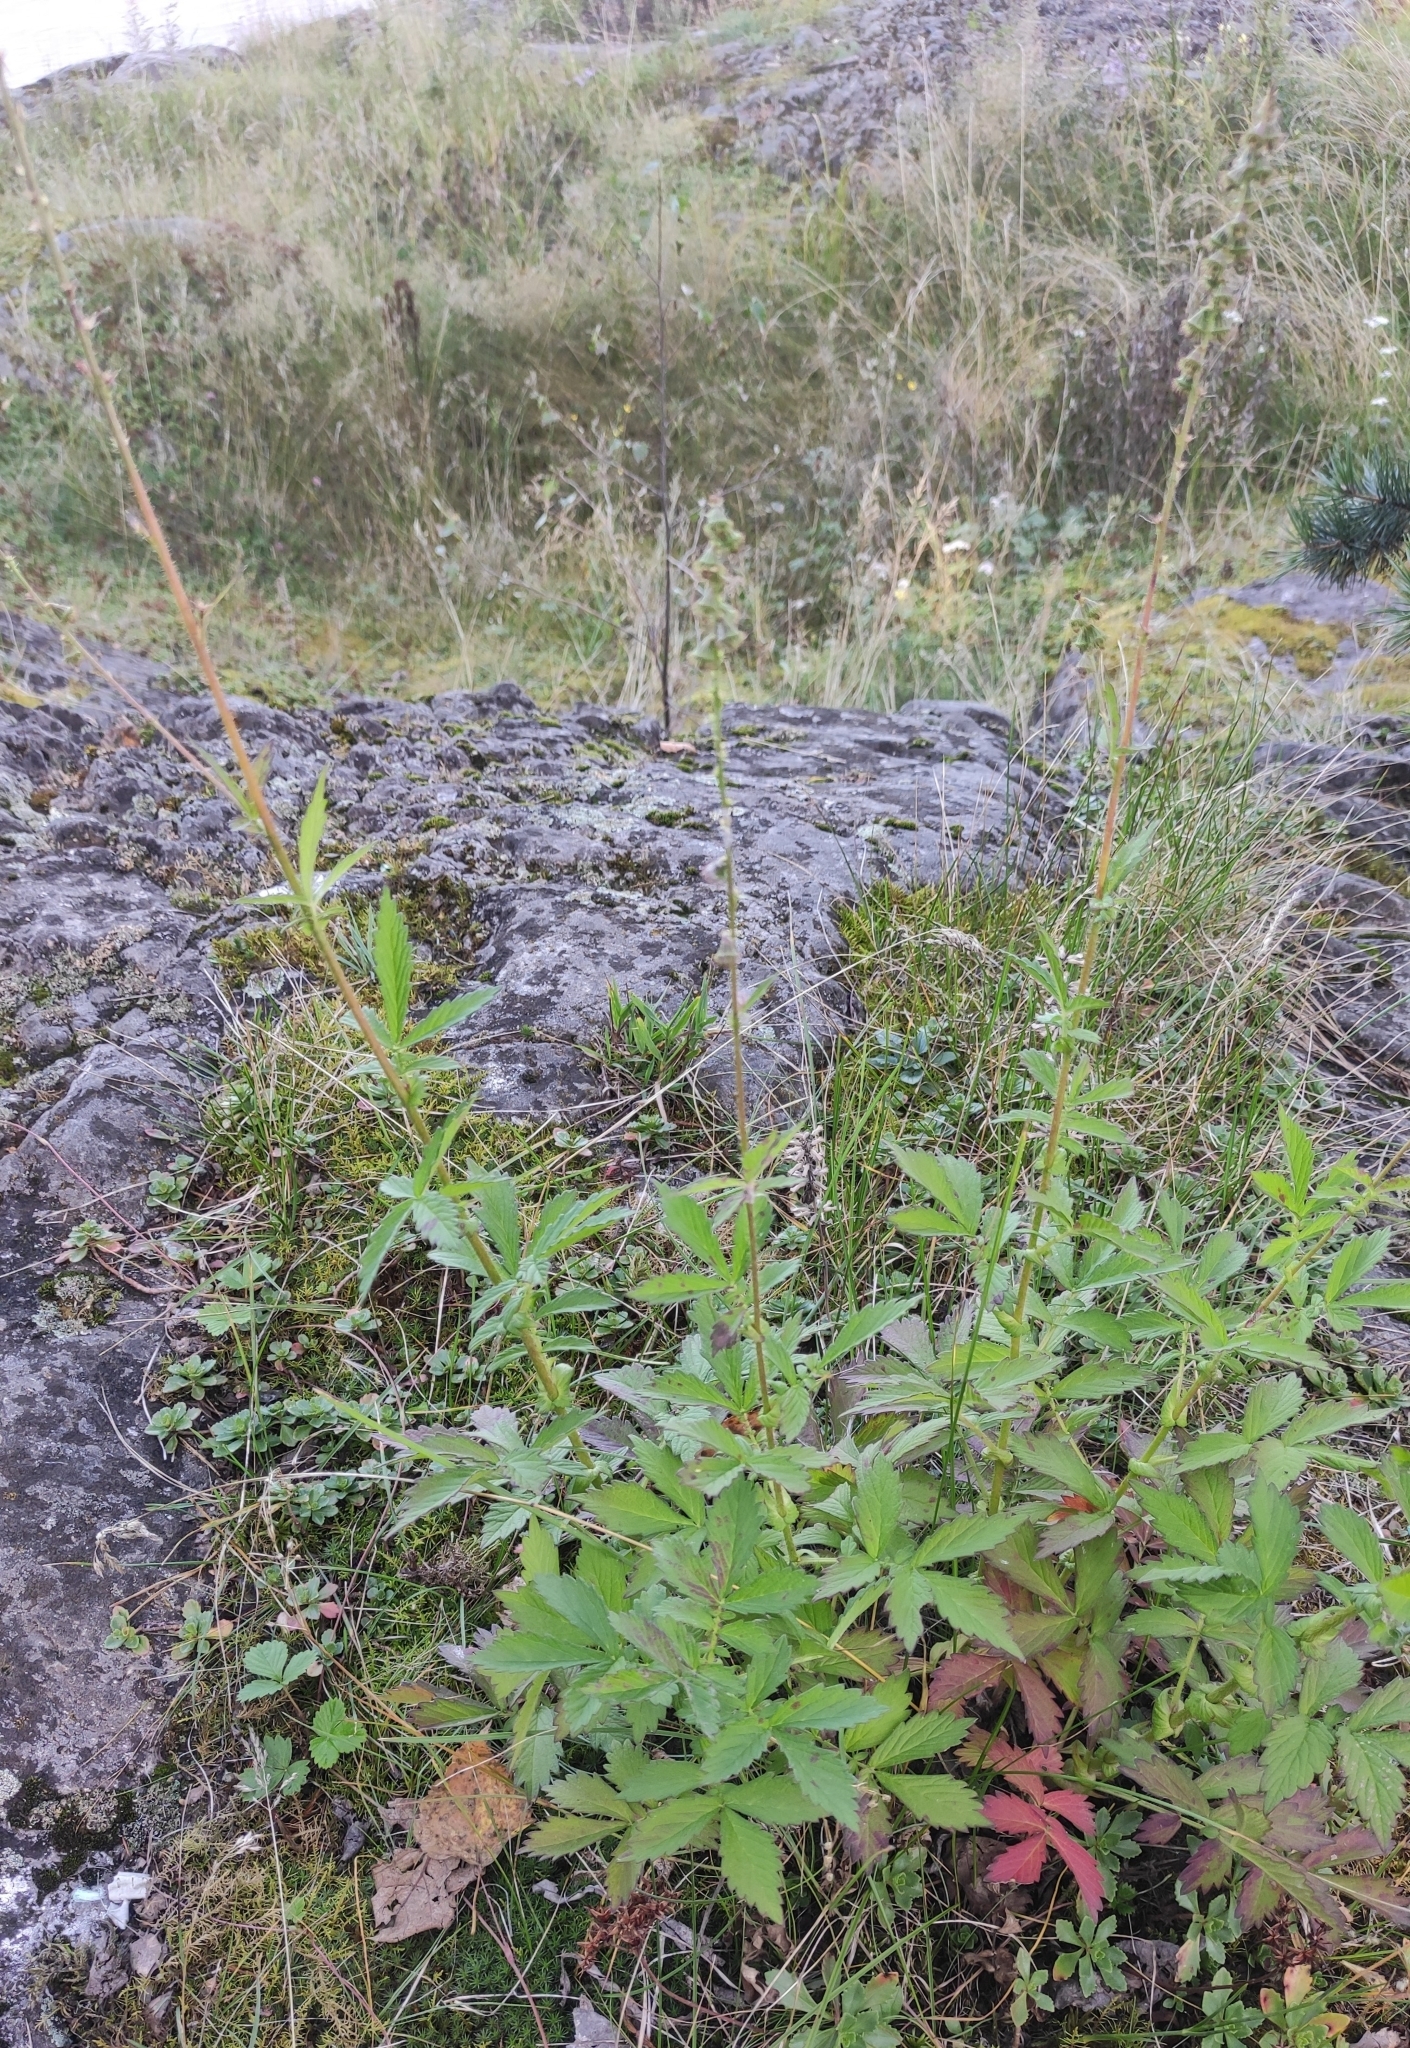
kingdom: Plantae
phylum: Tracheophyta
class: Magnoliopsida
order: Rosales
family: Rosaceae
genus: Agrimonia
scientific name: Agrimonia pilosa
